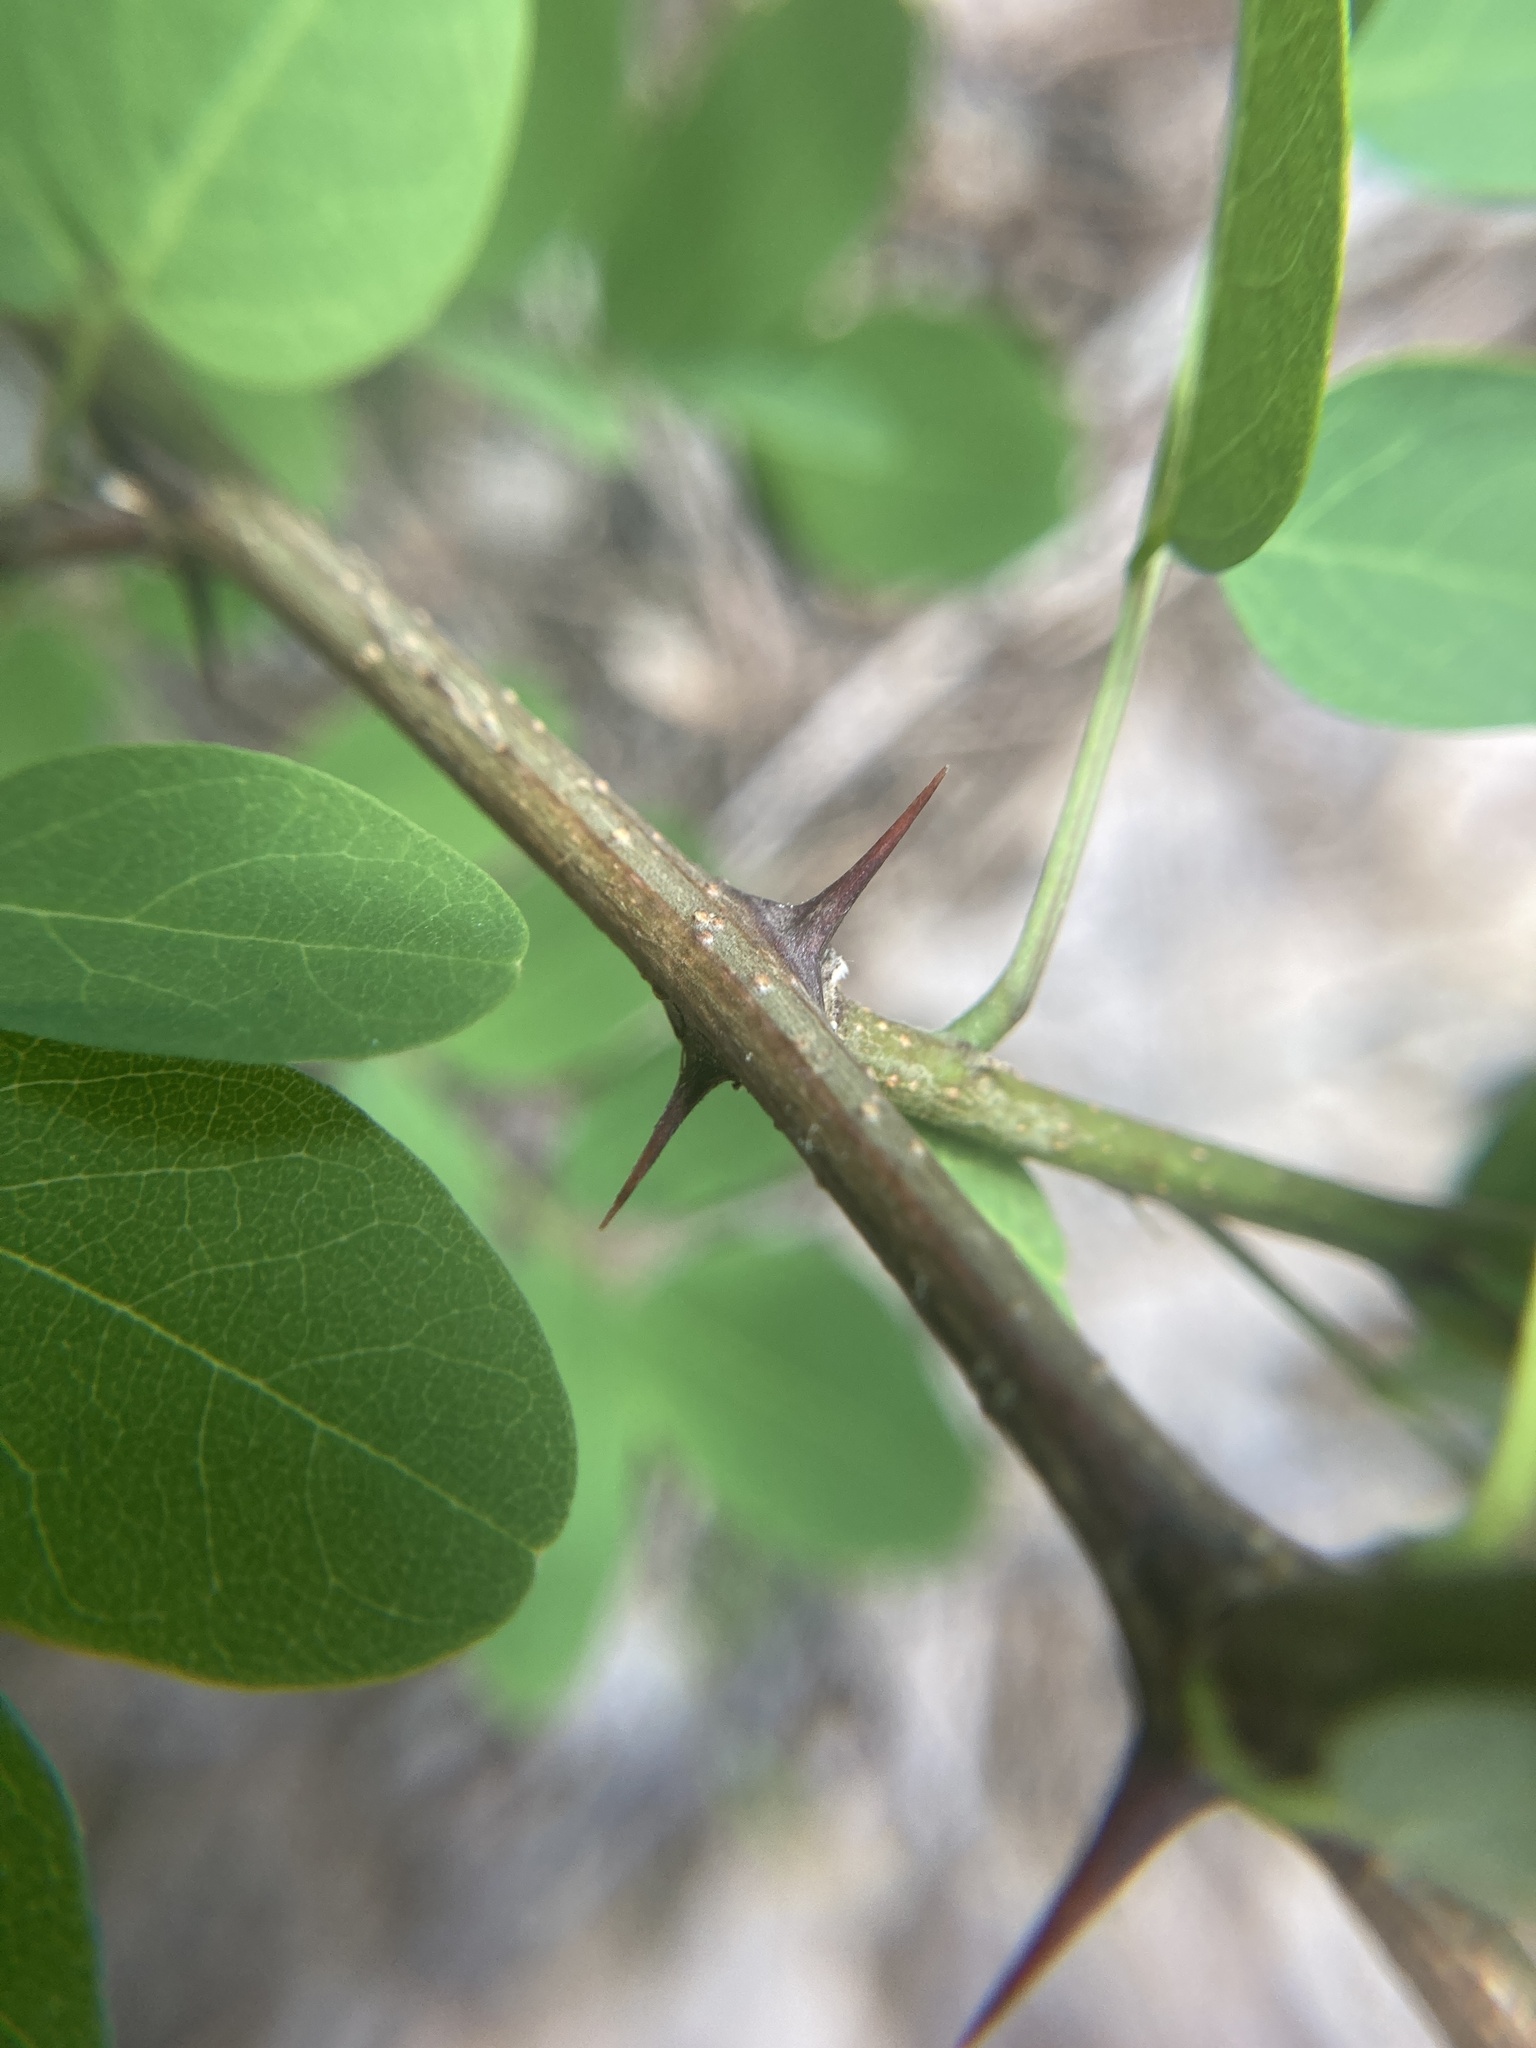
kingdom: Plantae
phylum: Tracheophyta
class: Magnoliopsida
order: Fabales
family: Fabaceae
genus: Robinia
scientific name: Robinia pseudoacacia
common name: Black locust
